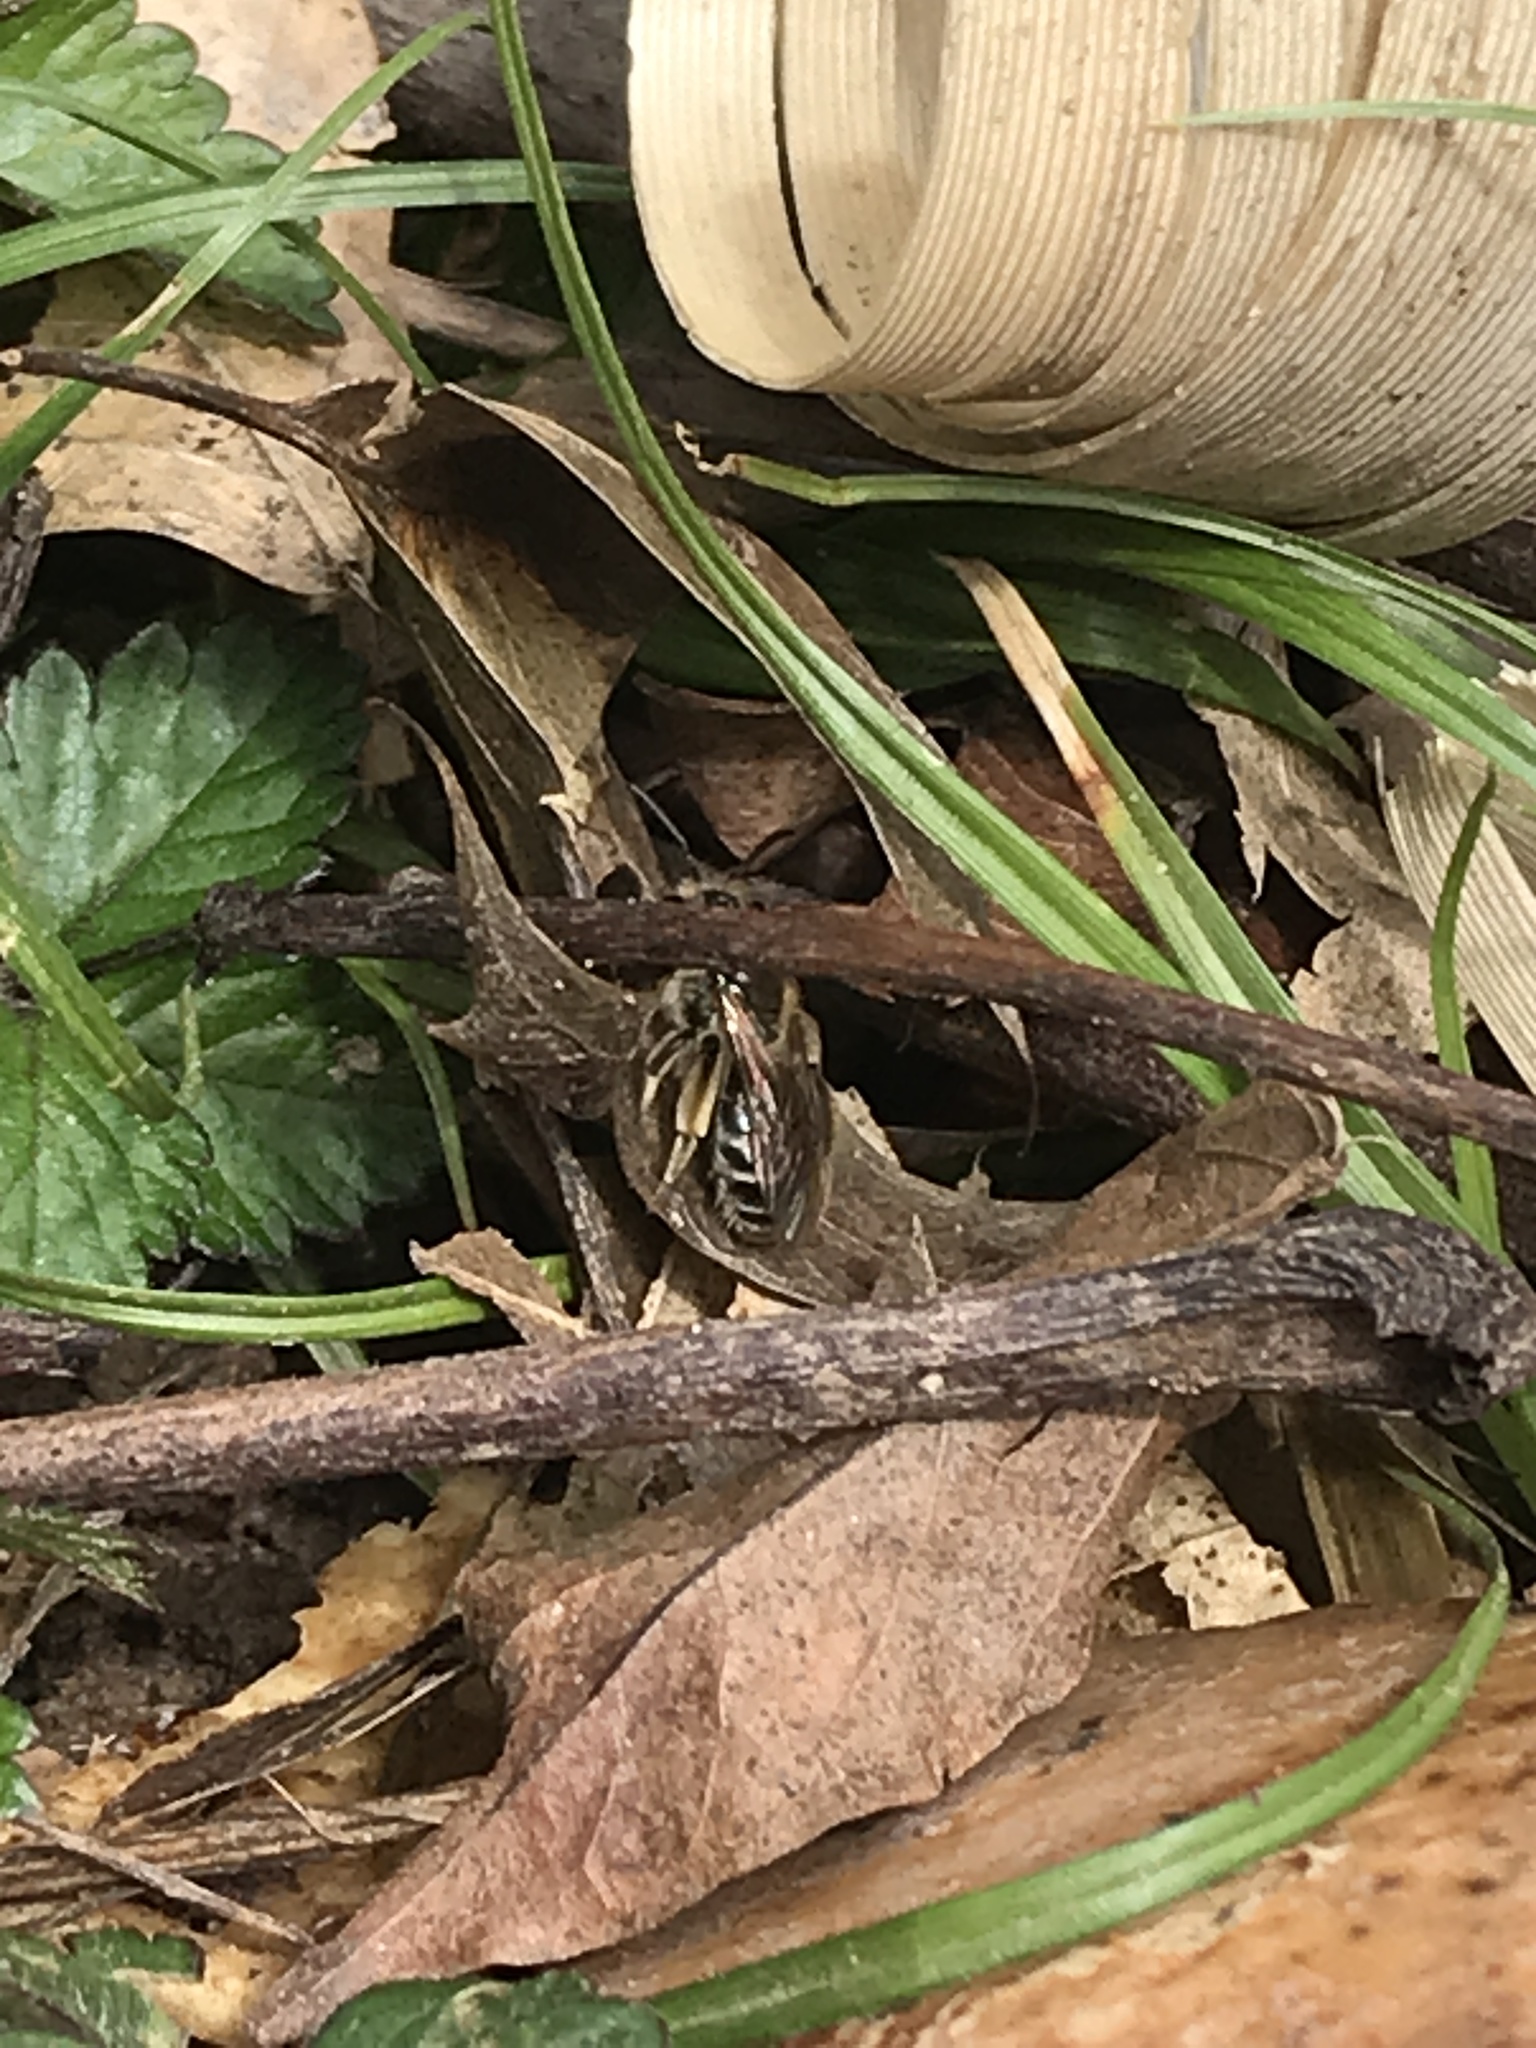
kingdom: Animalia
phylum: Arthropoda
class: Insecta
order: Hymenoptera
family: Andrenidae
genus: Andrena
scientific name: Andrena
